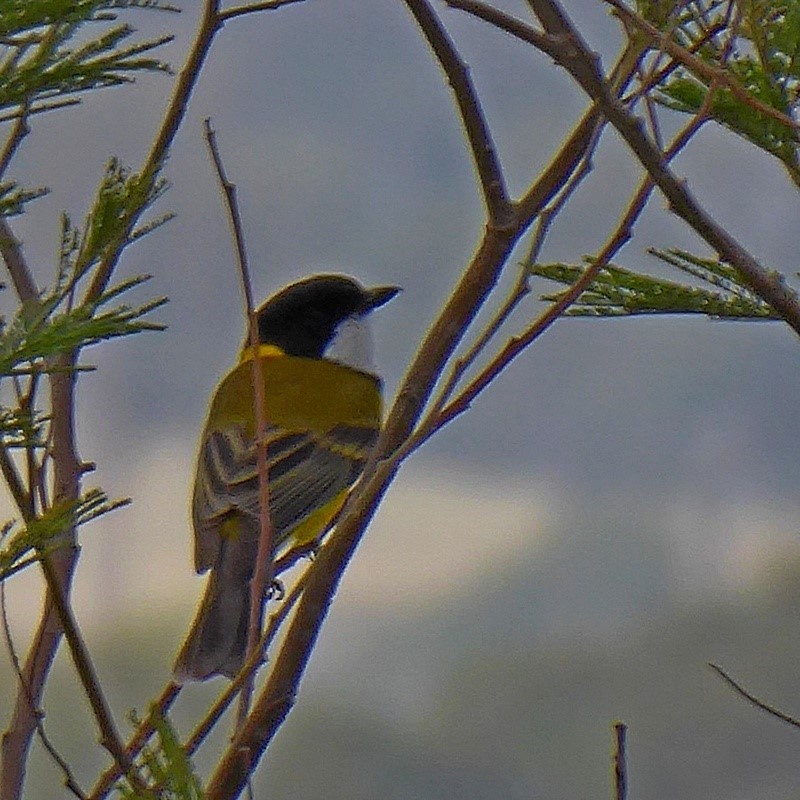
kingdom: Animalia
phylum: Chordata
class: Aves
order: Passeriformes
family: Pachycephalidae
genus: Pachycephala
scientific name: Pachycephala pectoralis
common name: Australian golden whistler
